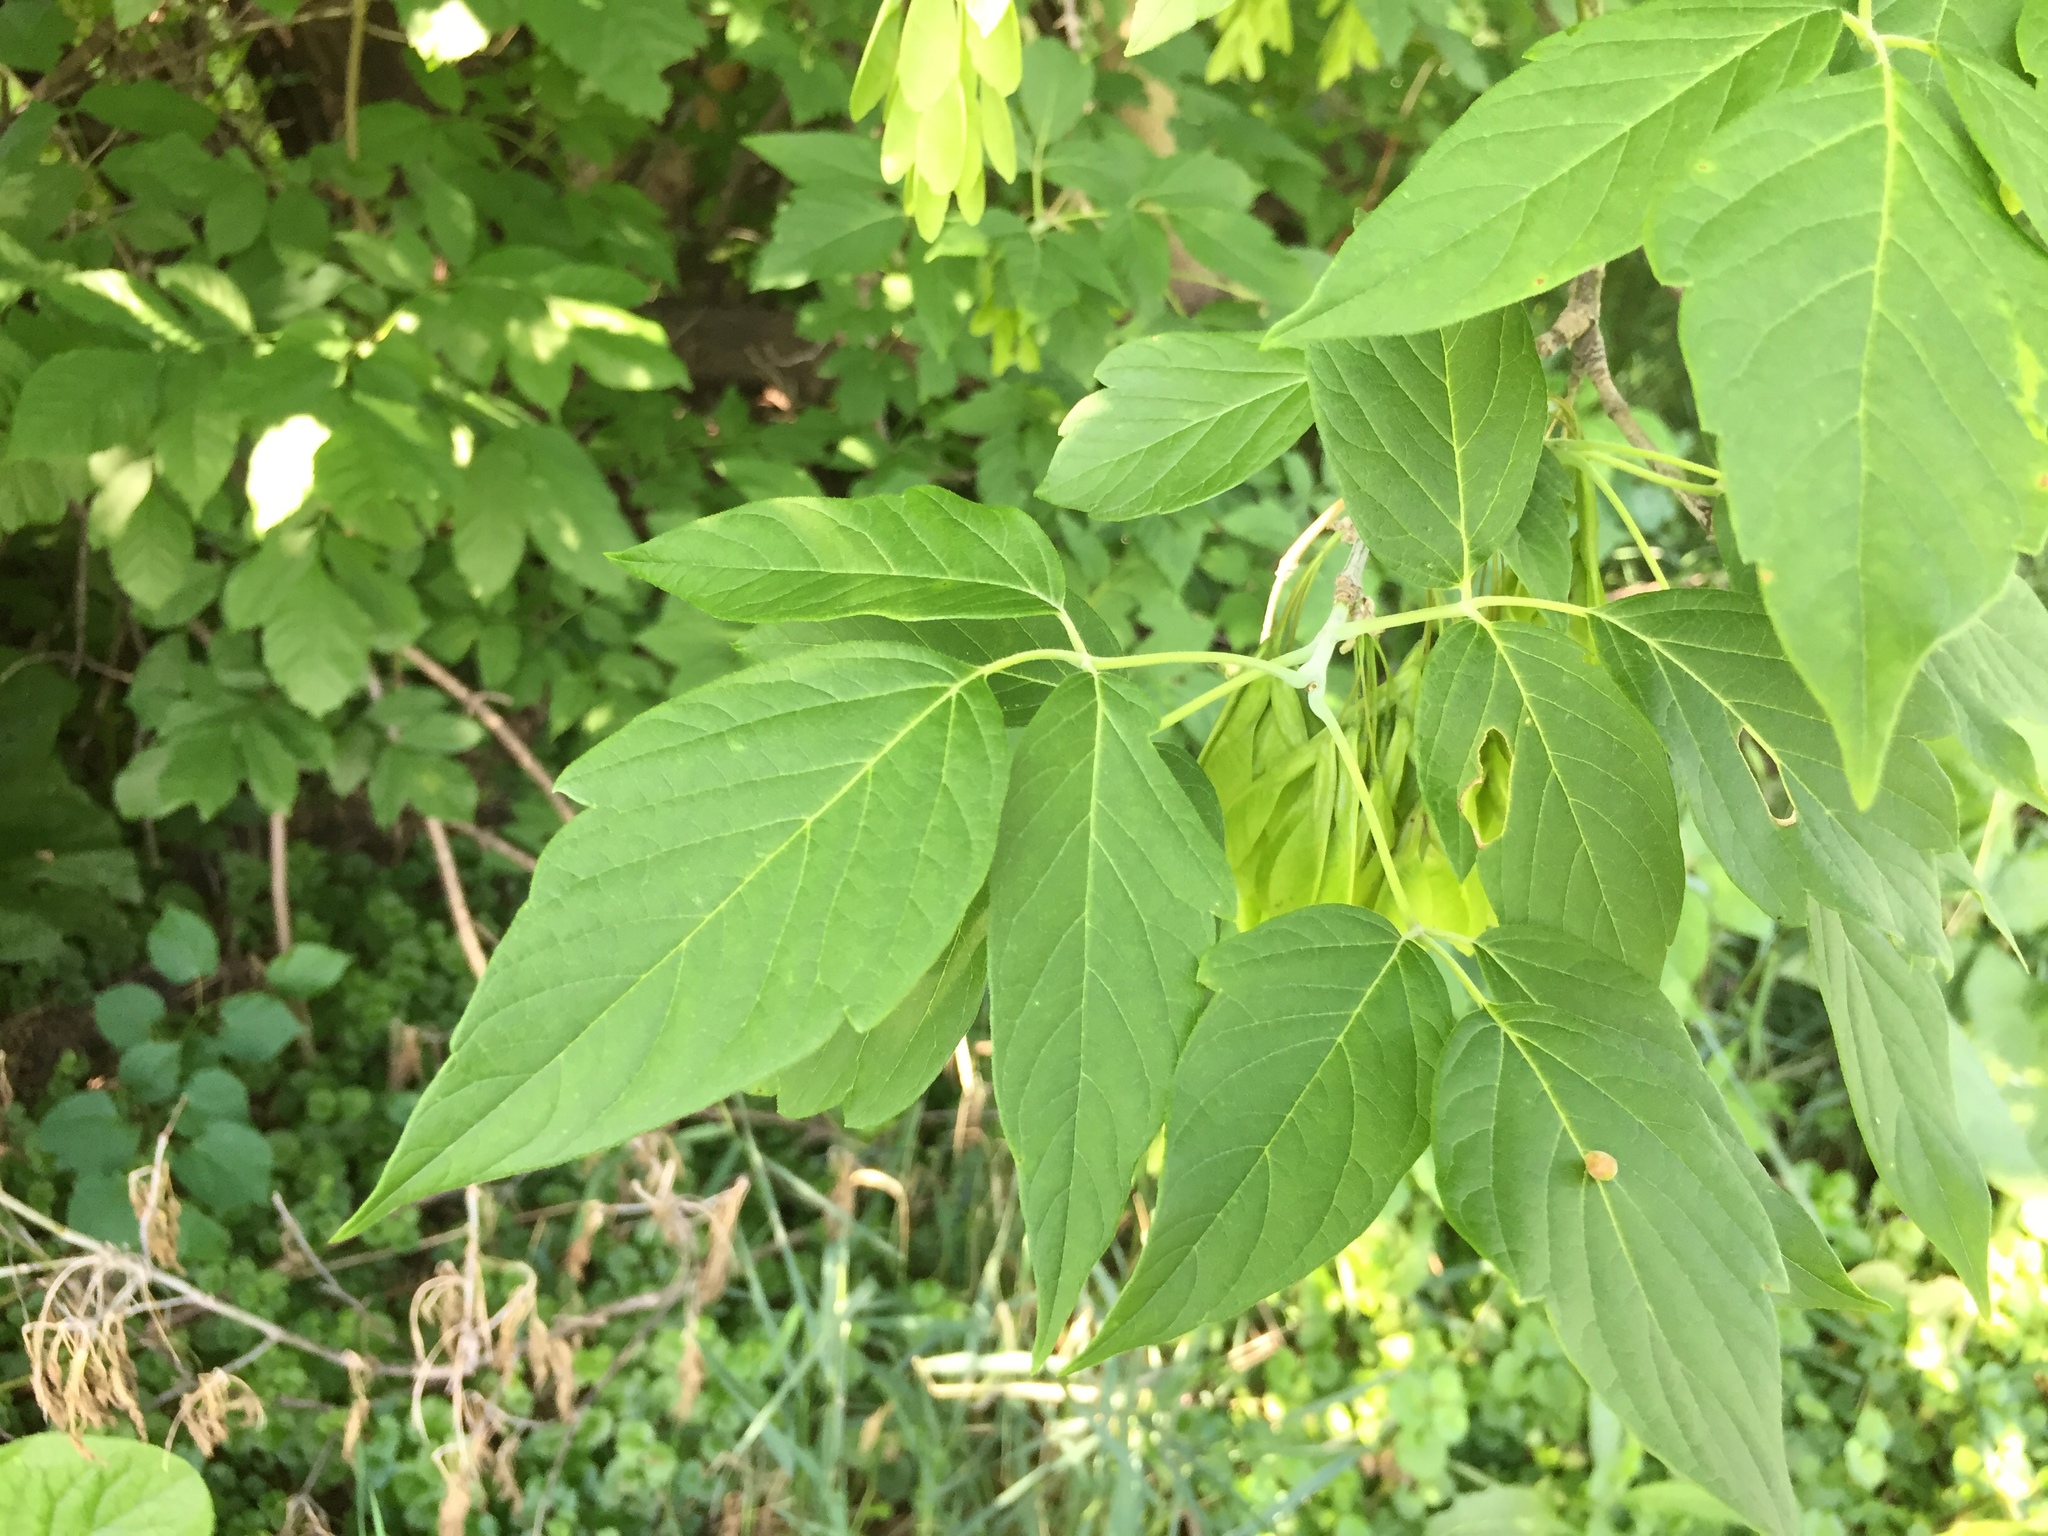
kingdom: Plantae
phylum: Tracheophyta
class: Magnoliopsida
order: Sapindales
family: Sapindaceae
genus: Acer
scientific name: Acer negundo
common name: Ashleaf maple
